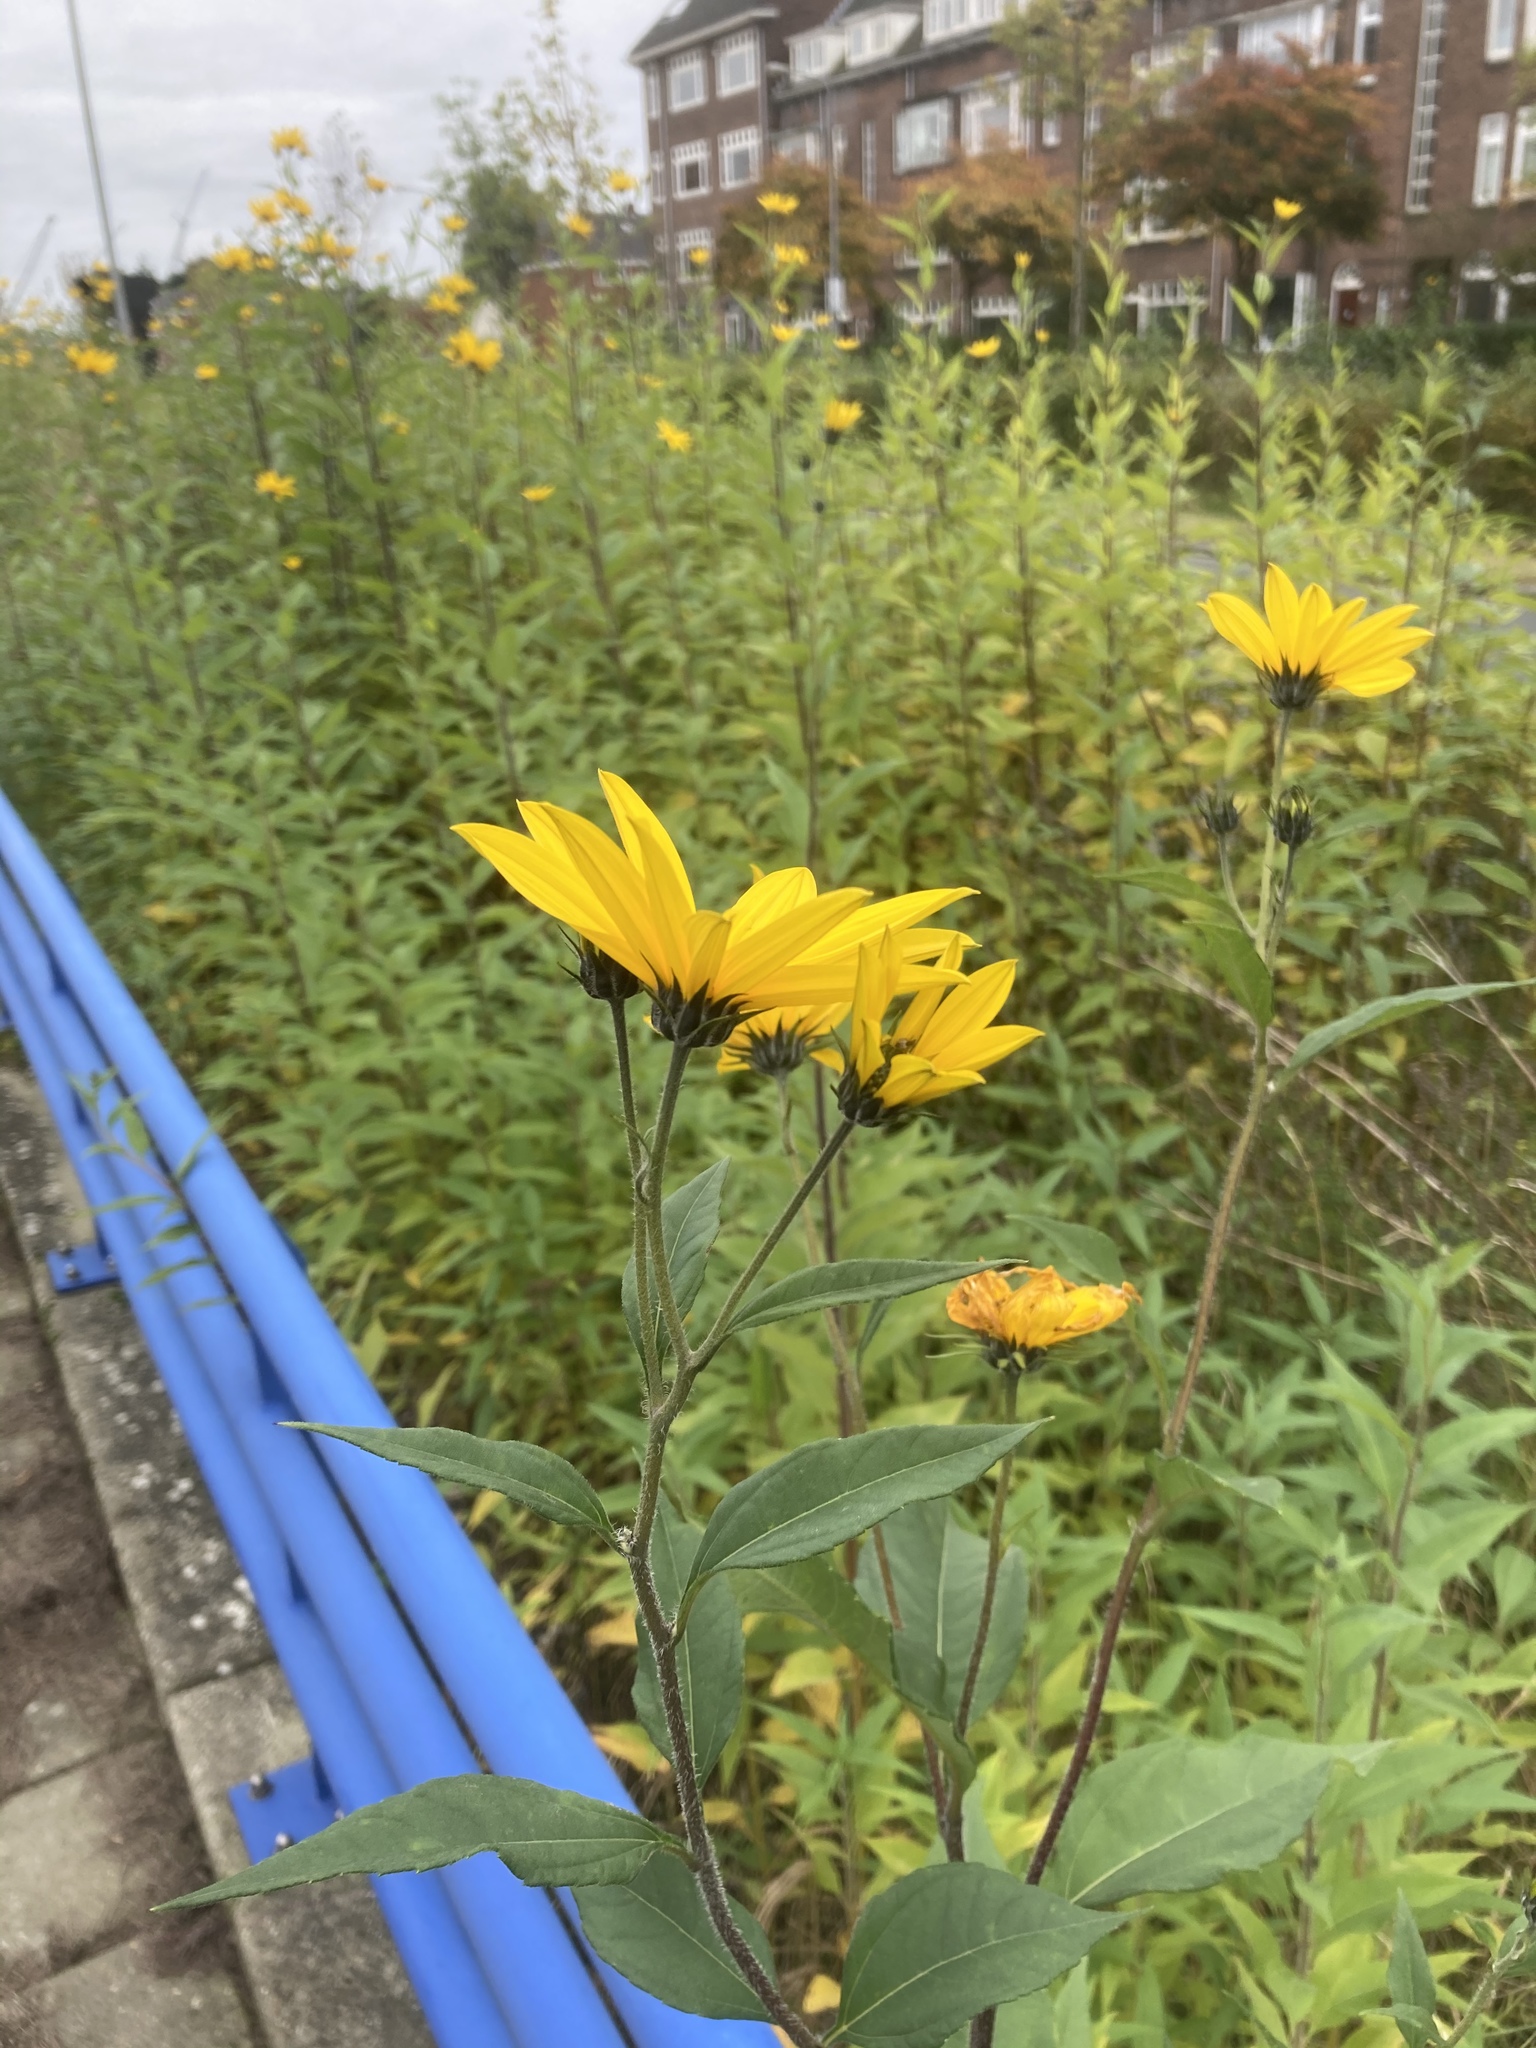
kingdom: Plantae
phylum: Tracheophyta
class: Magnoliopsida
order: Asterales
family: Asteraceae
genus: Helianthus
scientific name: Helianthus tuberosus
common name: Jerusalem artichoke
